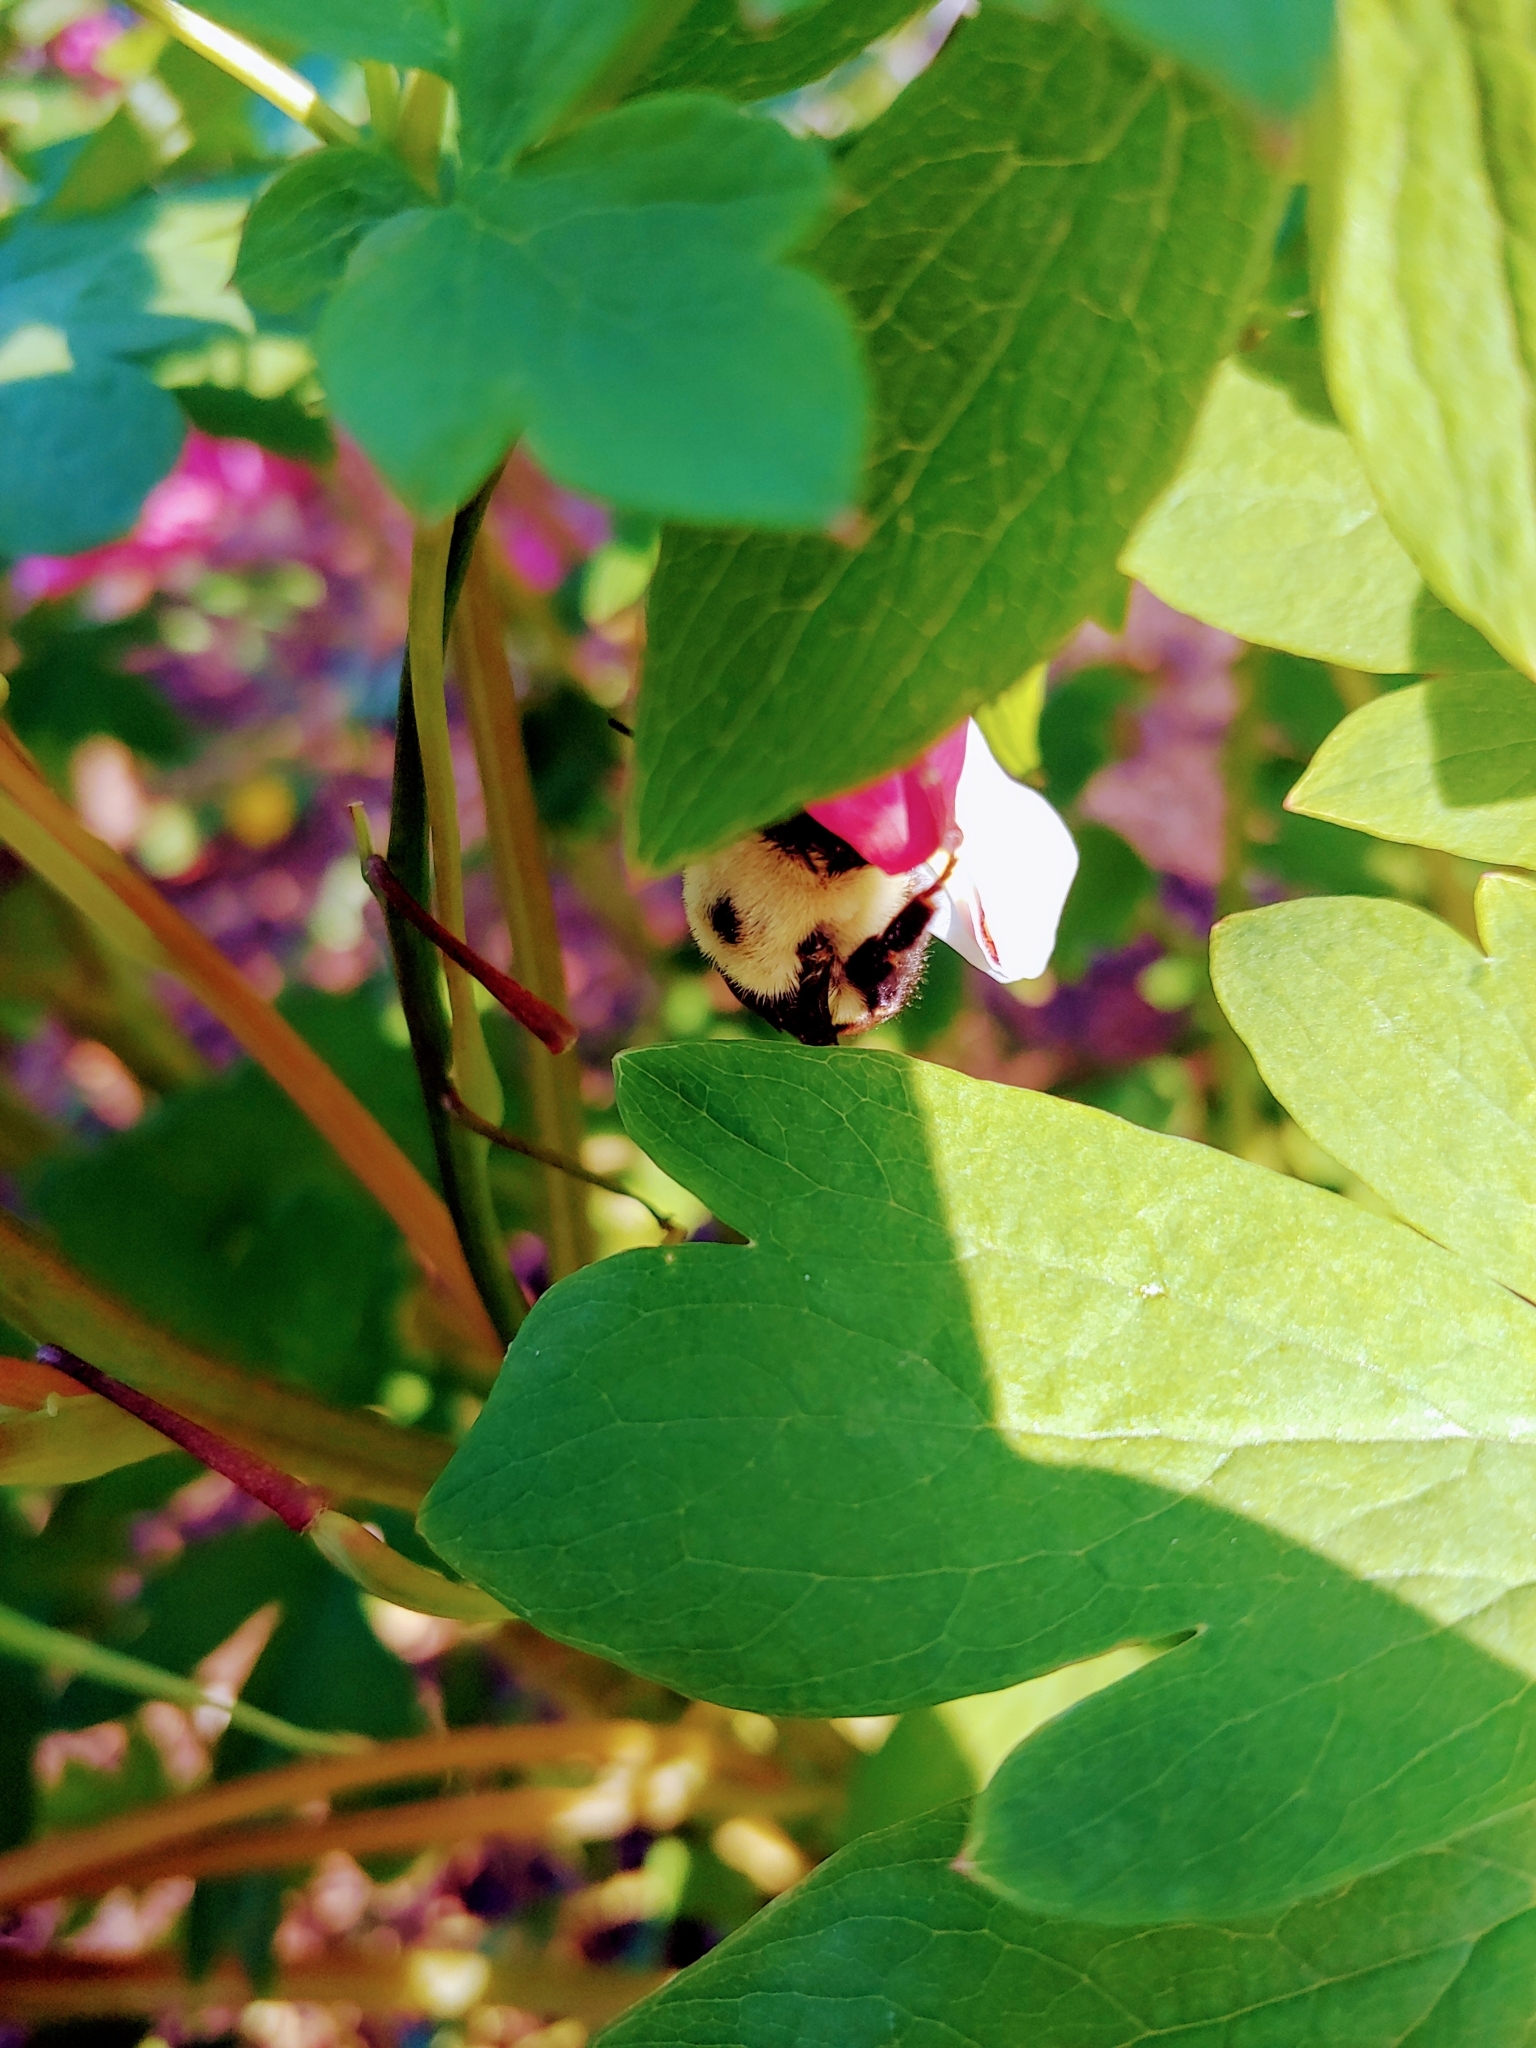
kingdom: Animalia
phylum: Arthropoda
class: Insecta
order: Hymenoptera
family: Apidae
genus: Bombus
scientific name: Bombus griseocollis
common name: Brown-belted bumble bee
